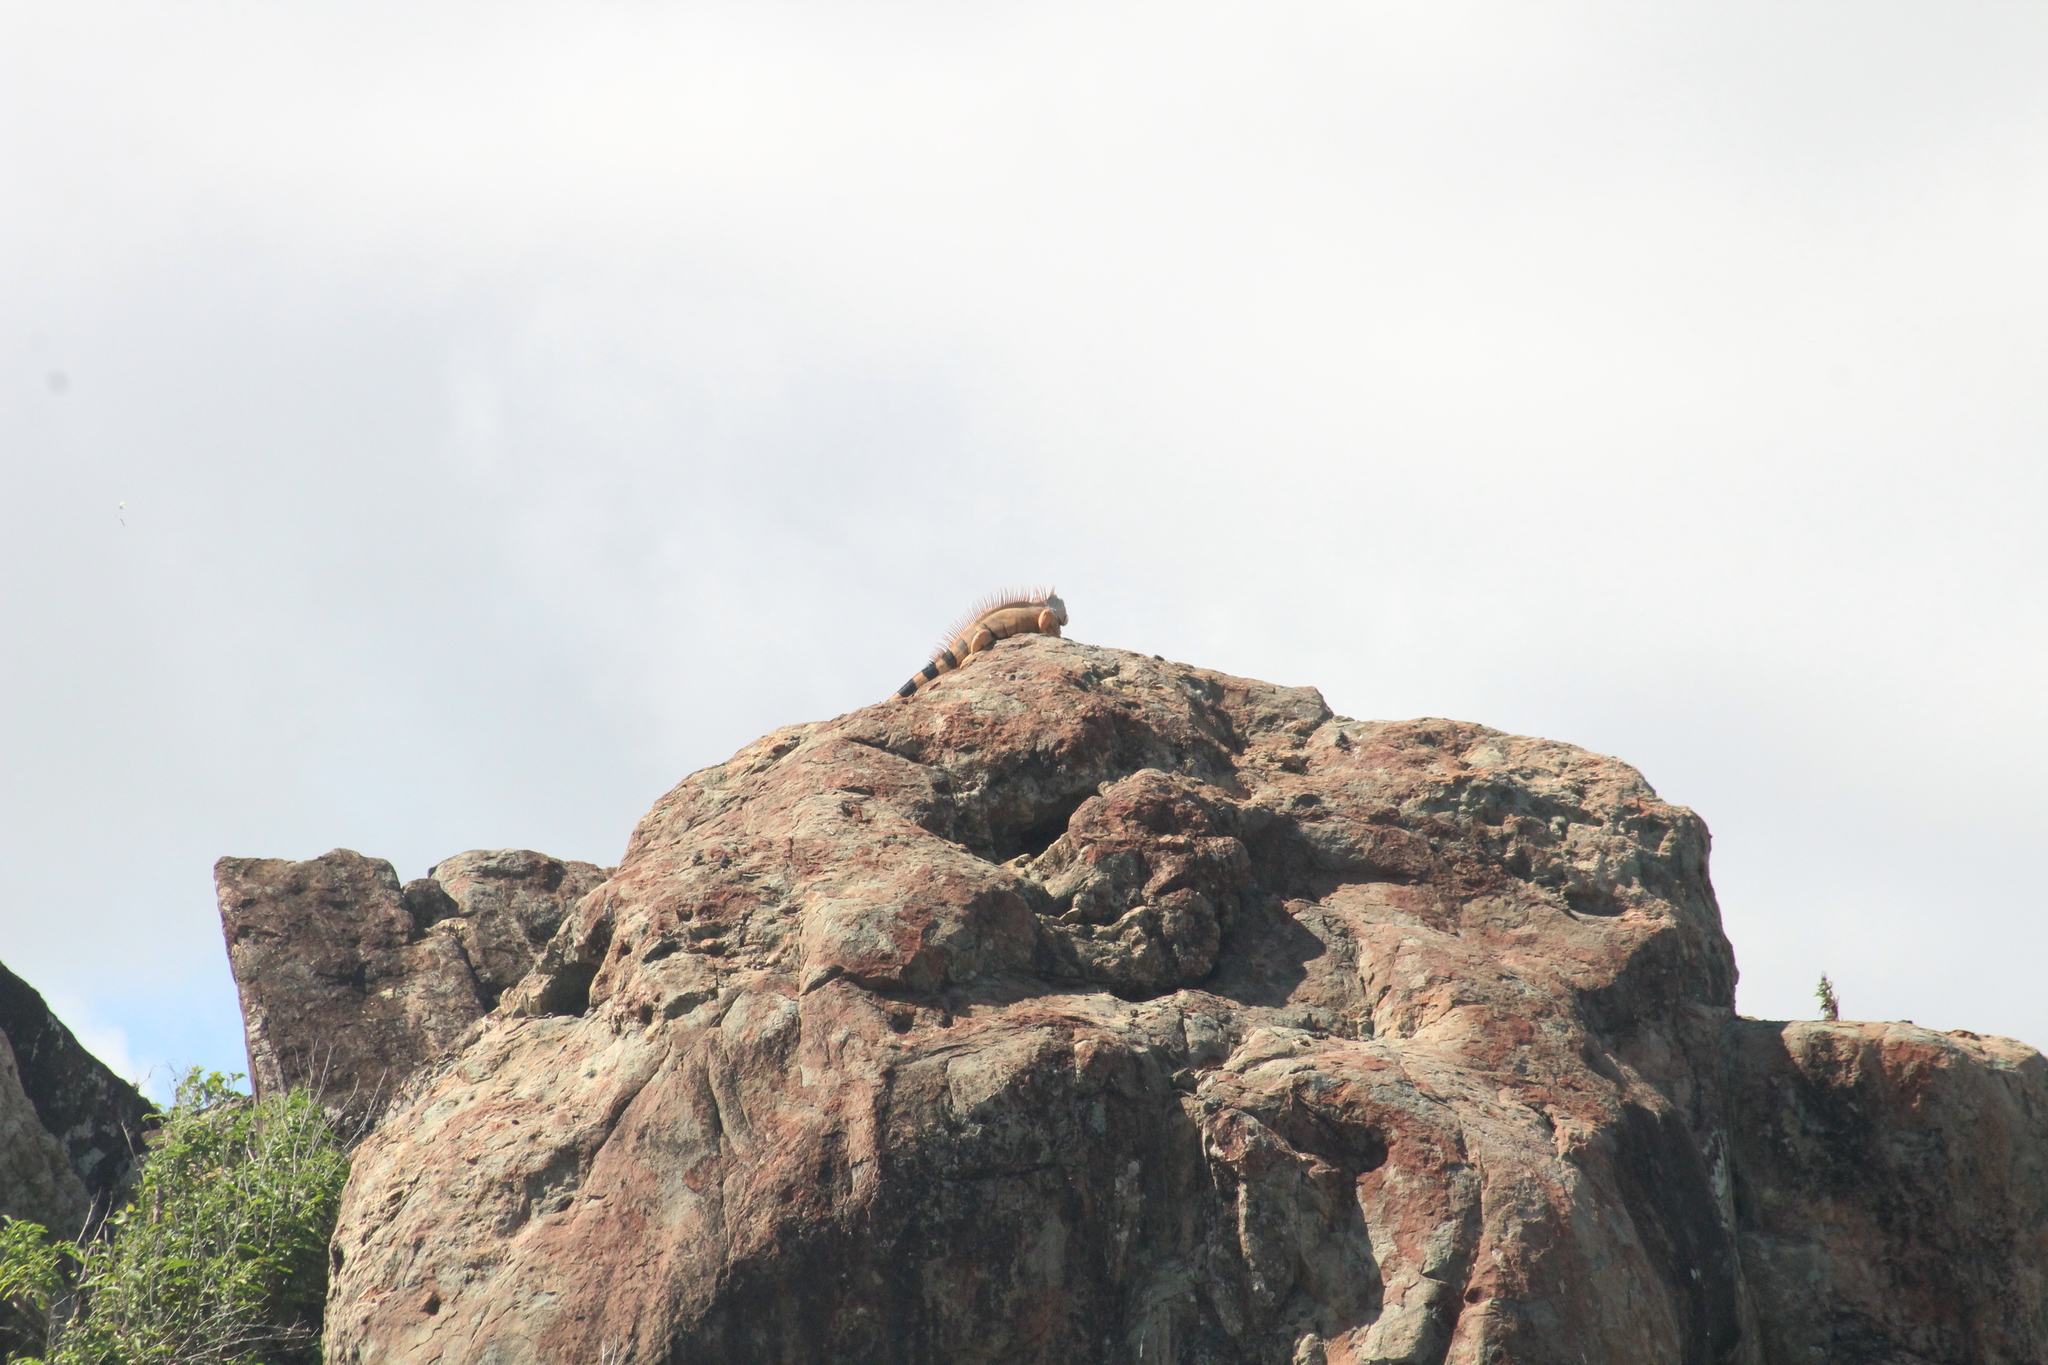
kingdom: Animalia
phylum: Chordata
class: Squamata
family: Iguanidae
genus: Iguana
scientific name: Iguana iguana
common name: Green iguana
